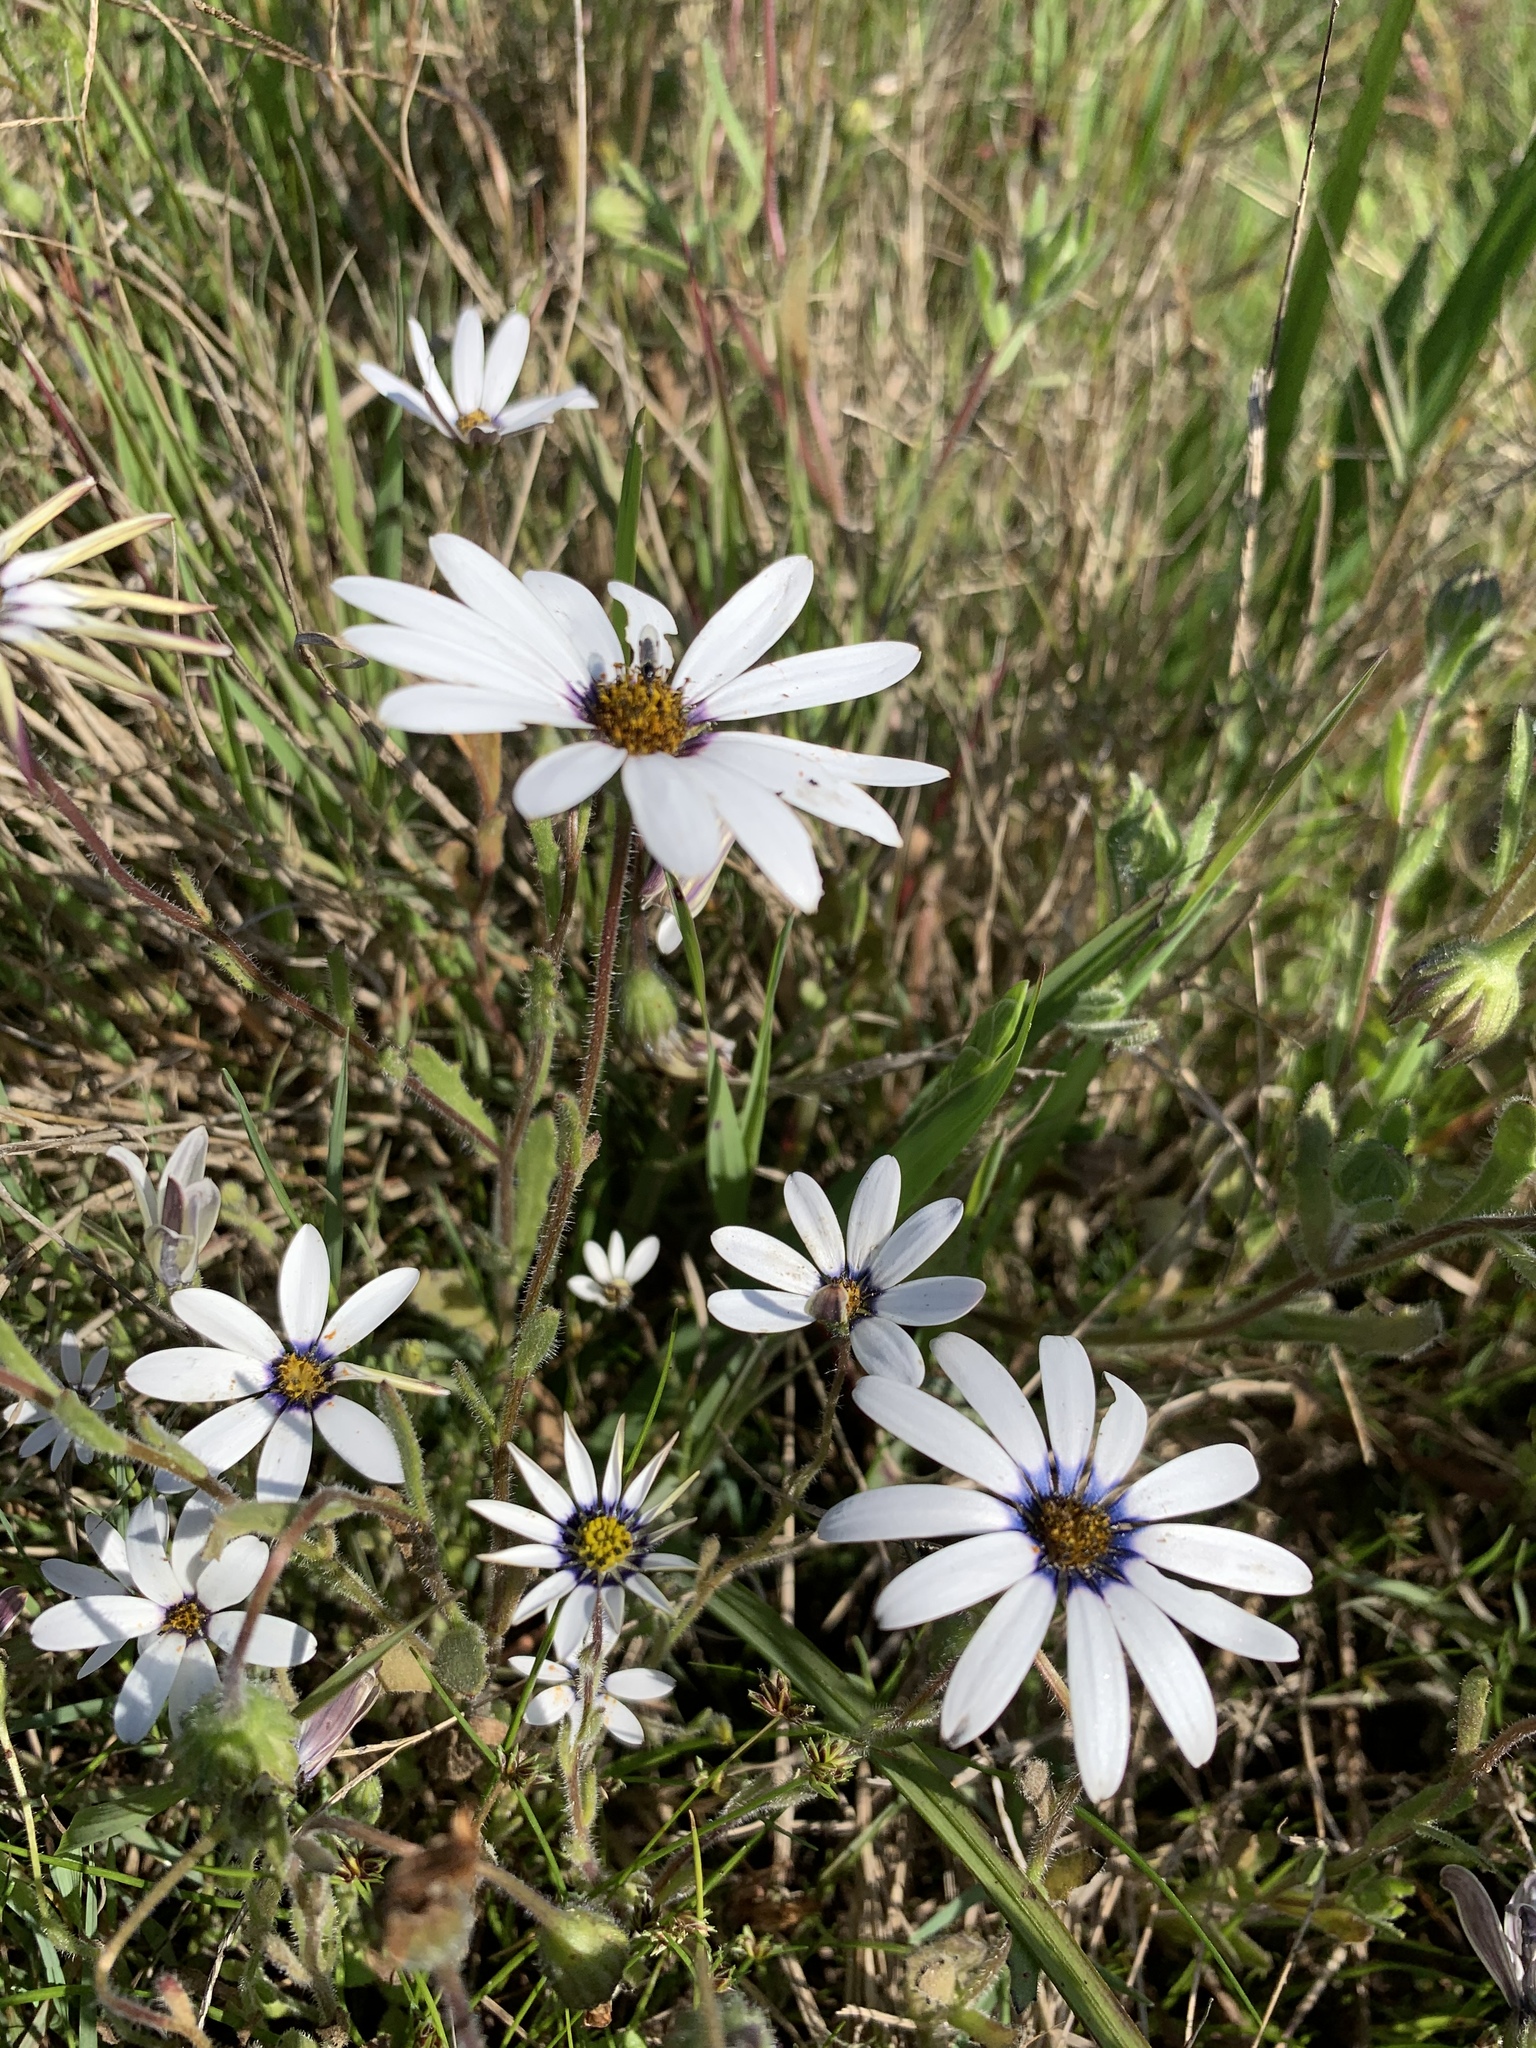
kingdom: Plantae
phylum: Tracheophyta
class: Magnoliopsida
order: Asterales
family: Asteraceae
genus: Dimorphotheca
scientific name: Dimorphotheca pluvialis
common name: Weather prophet
